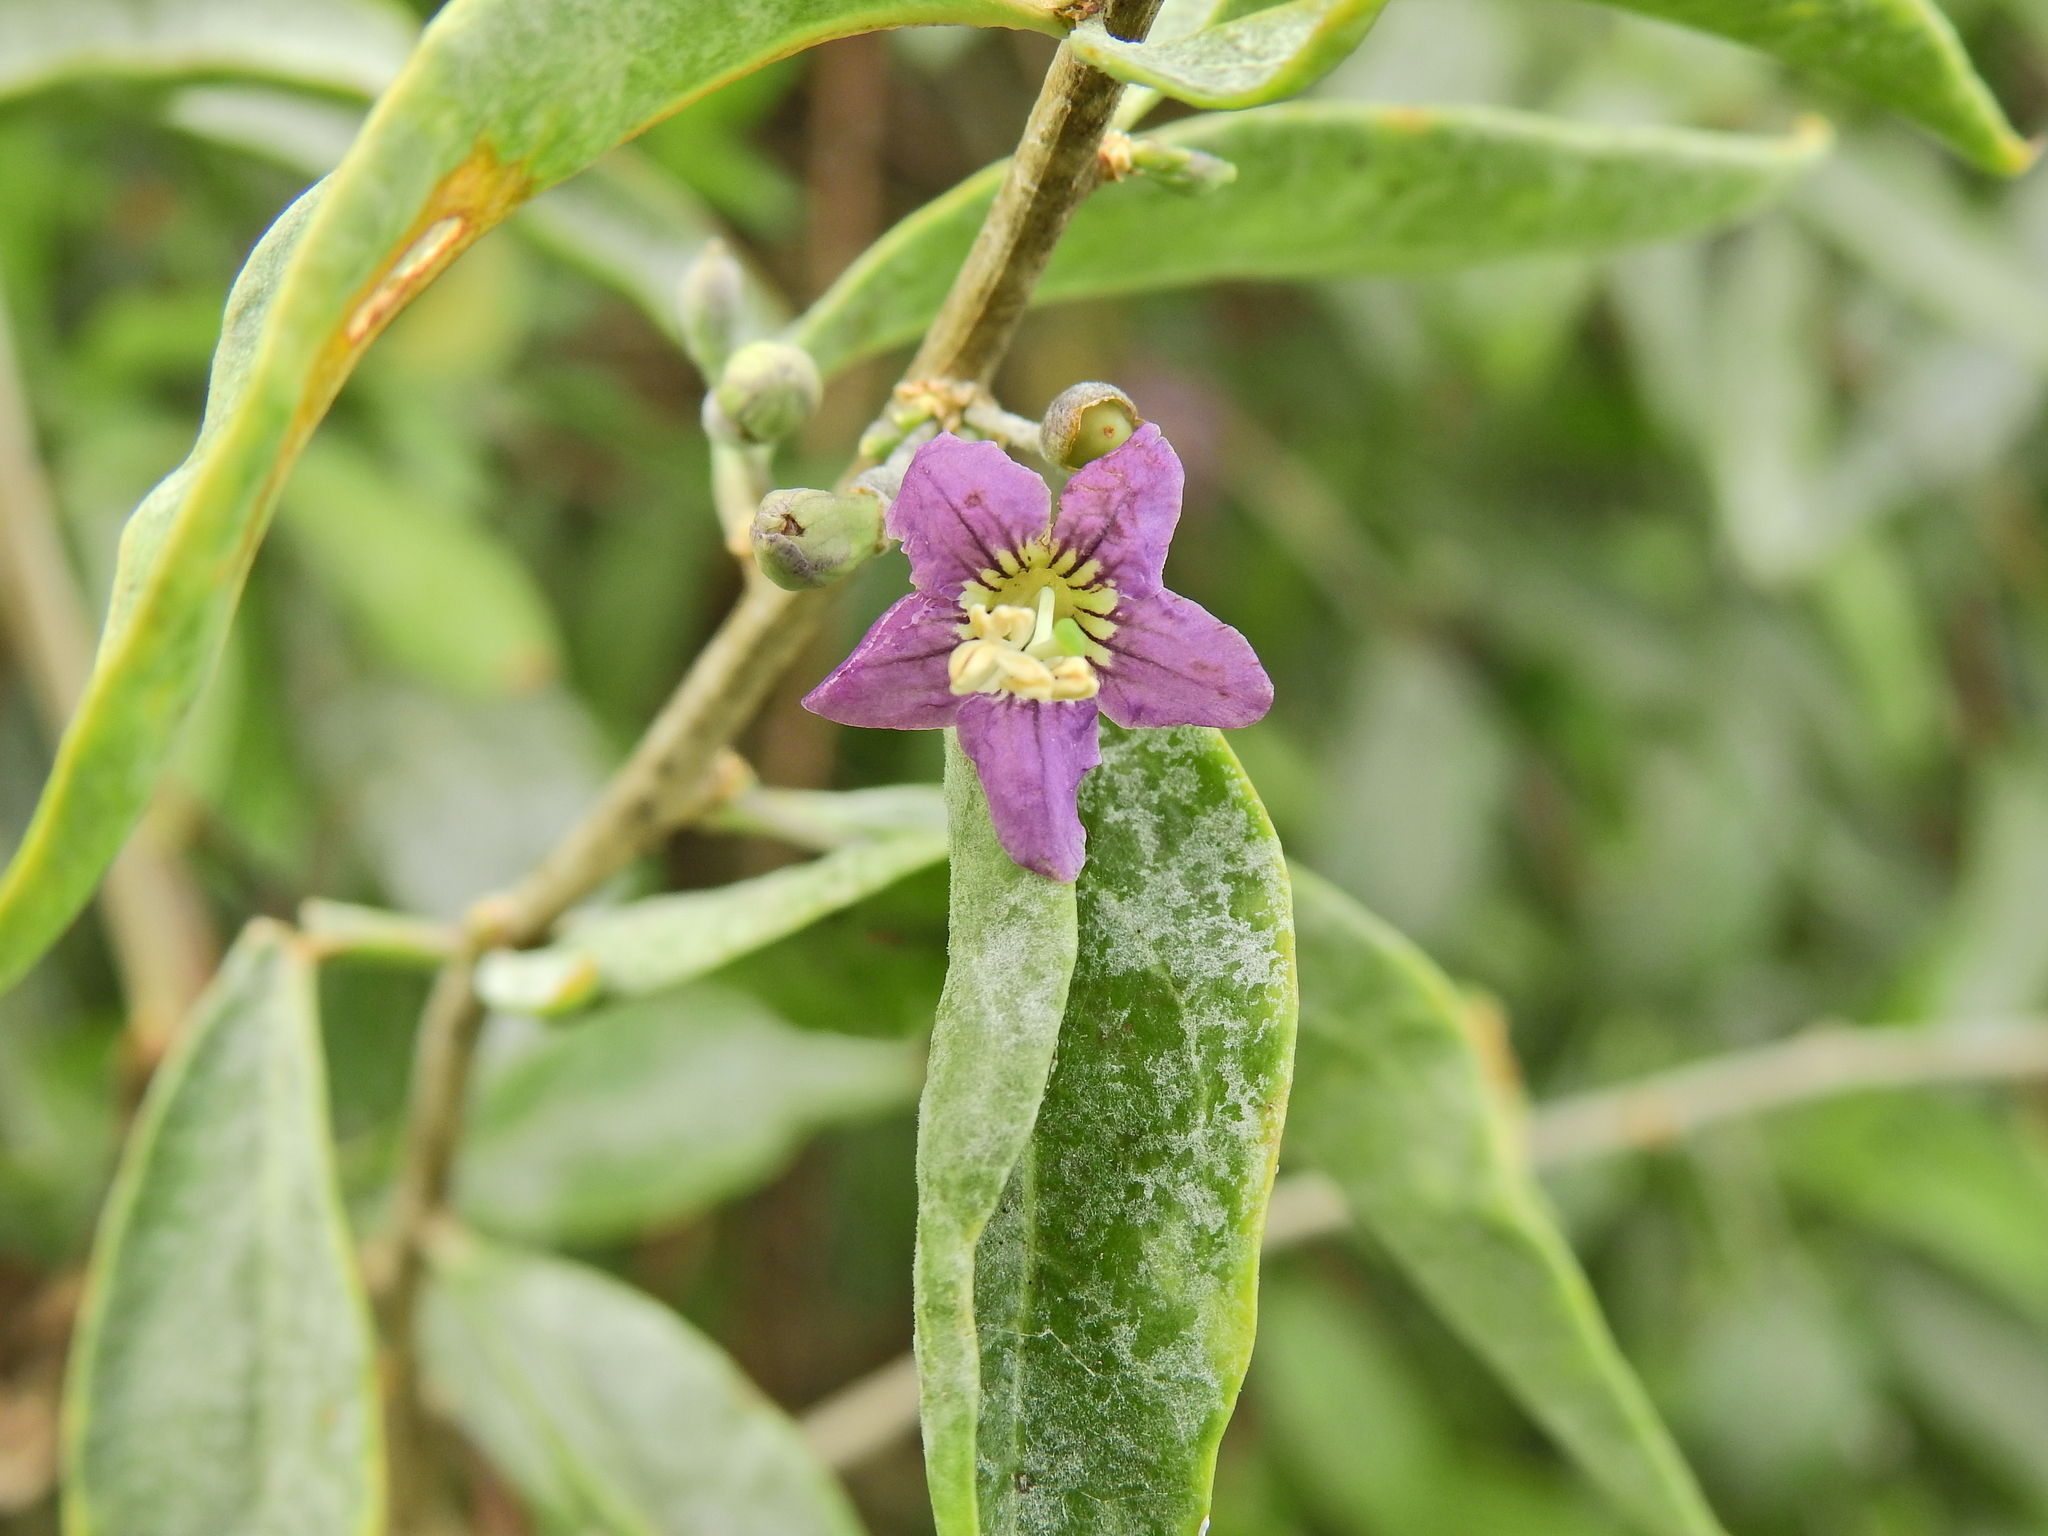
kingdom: Plantae
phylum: Tracheophyta
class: Magnoliopsida
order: Solanales
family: Solanaceae
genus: Lycium
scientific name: Lycium barbarum
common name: Duke of argyll's teaplant
